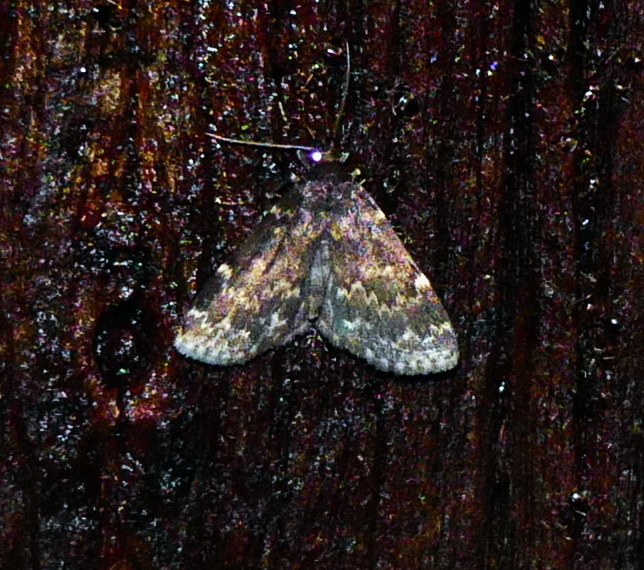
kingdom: Animalia
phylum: Arthropoda
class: Insecta
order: Lepidoptera
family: Erebidae
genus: Idia
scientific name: Idia lubricalis
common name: Twin-striped tabby
